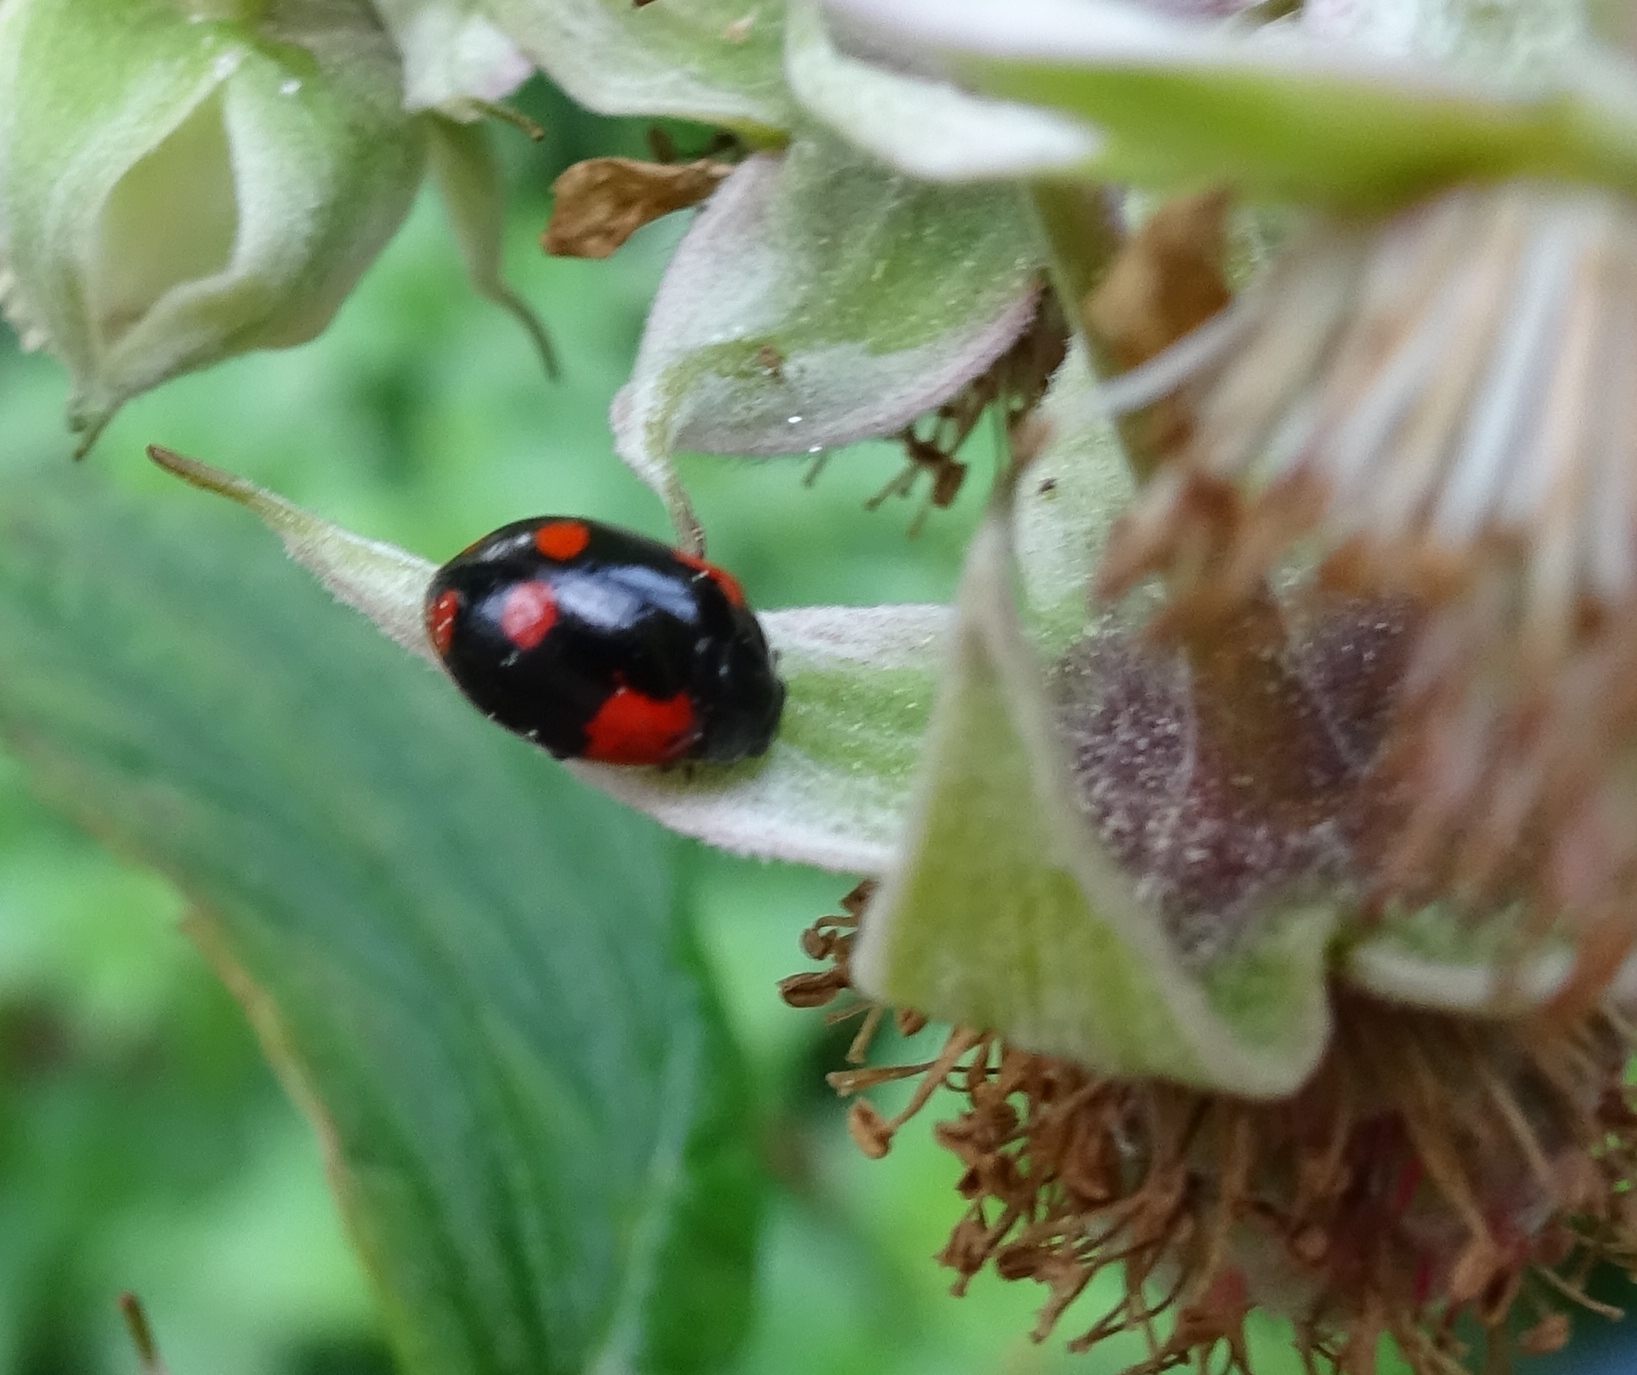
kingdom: Animalia
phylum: Arthropoda
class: Insecta
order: Coleoptera
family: Coccinellidae
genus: Adalia
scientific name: Adalia bipunctata
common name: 2-spot ladybird
